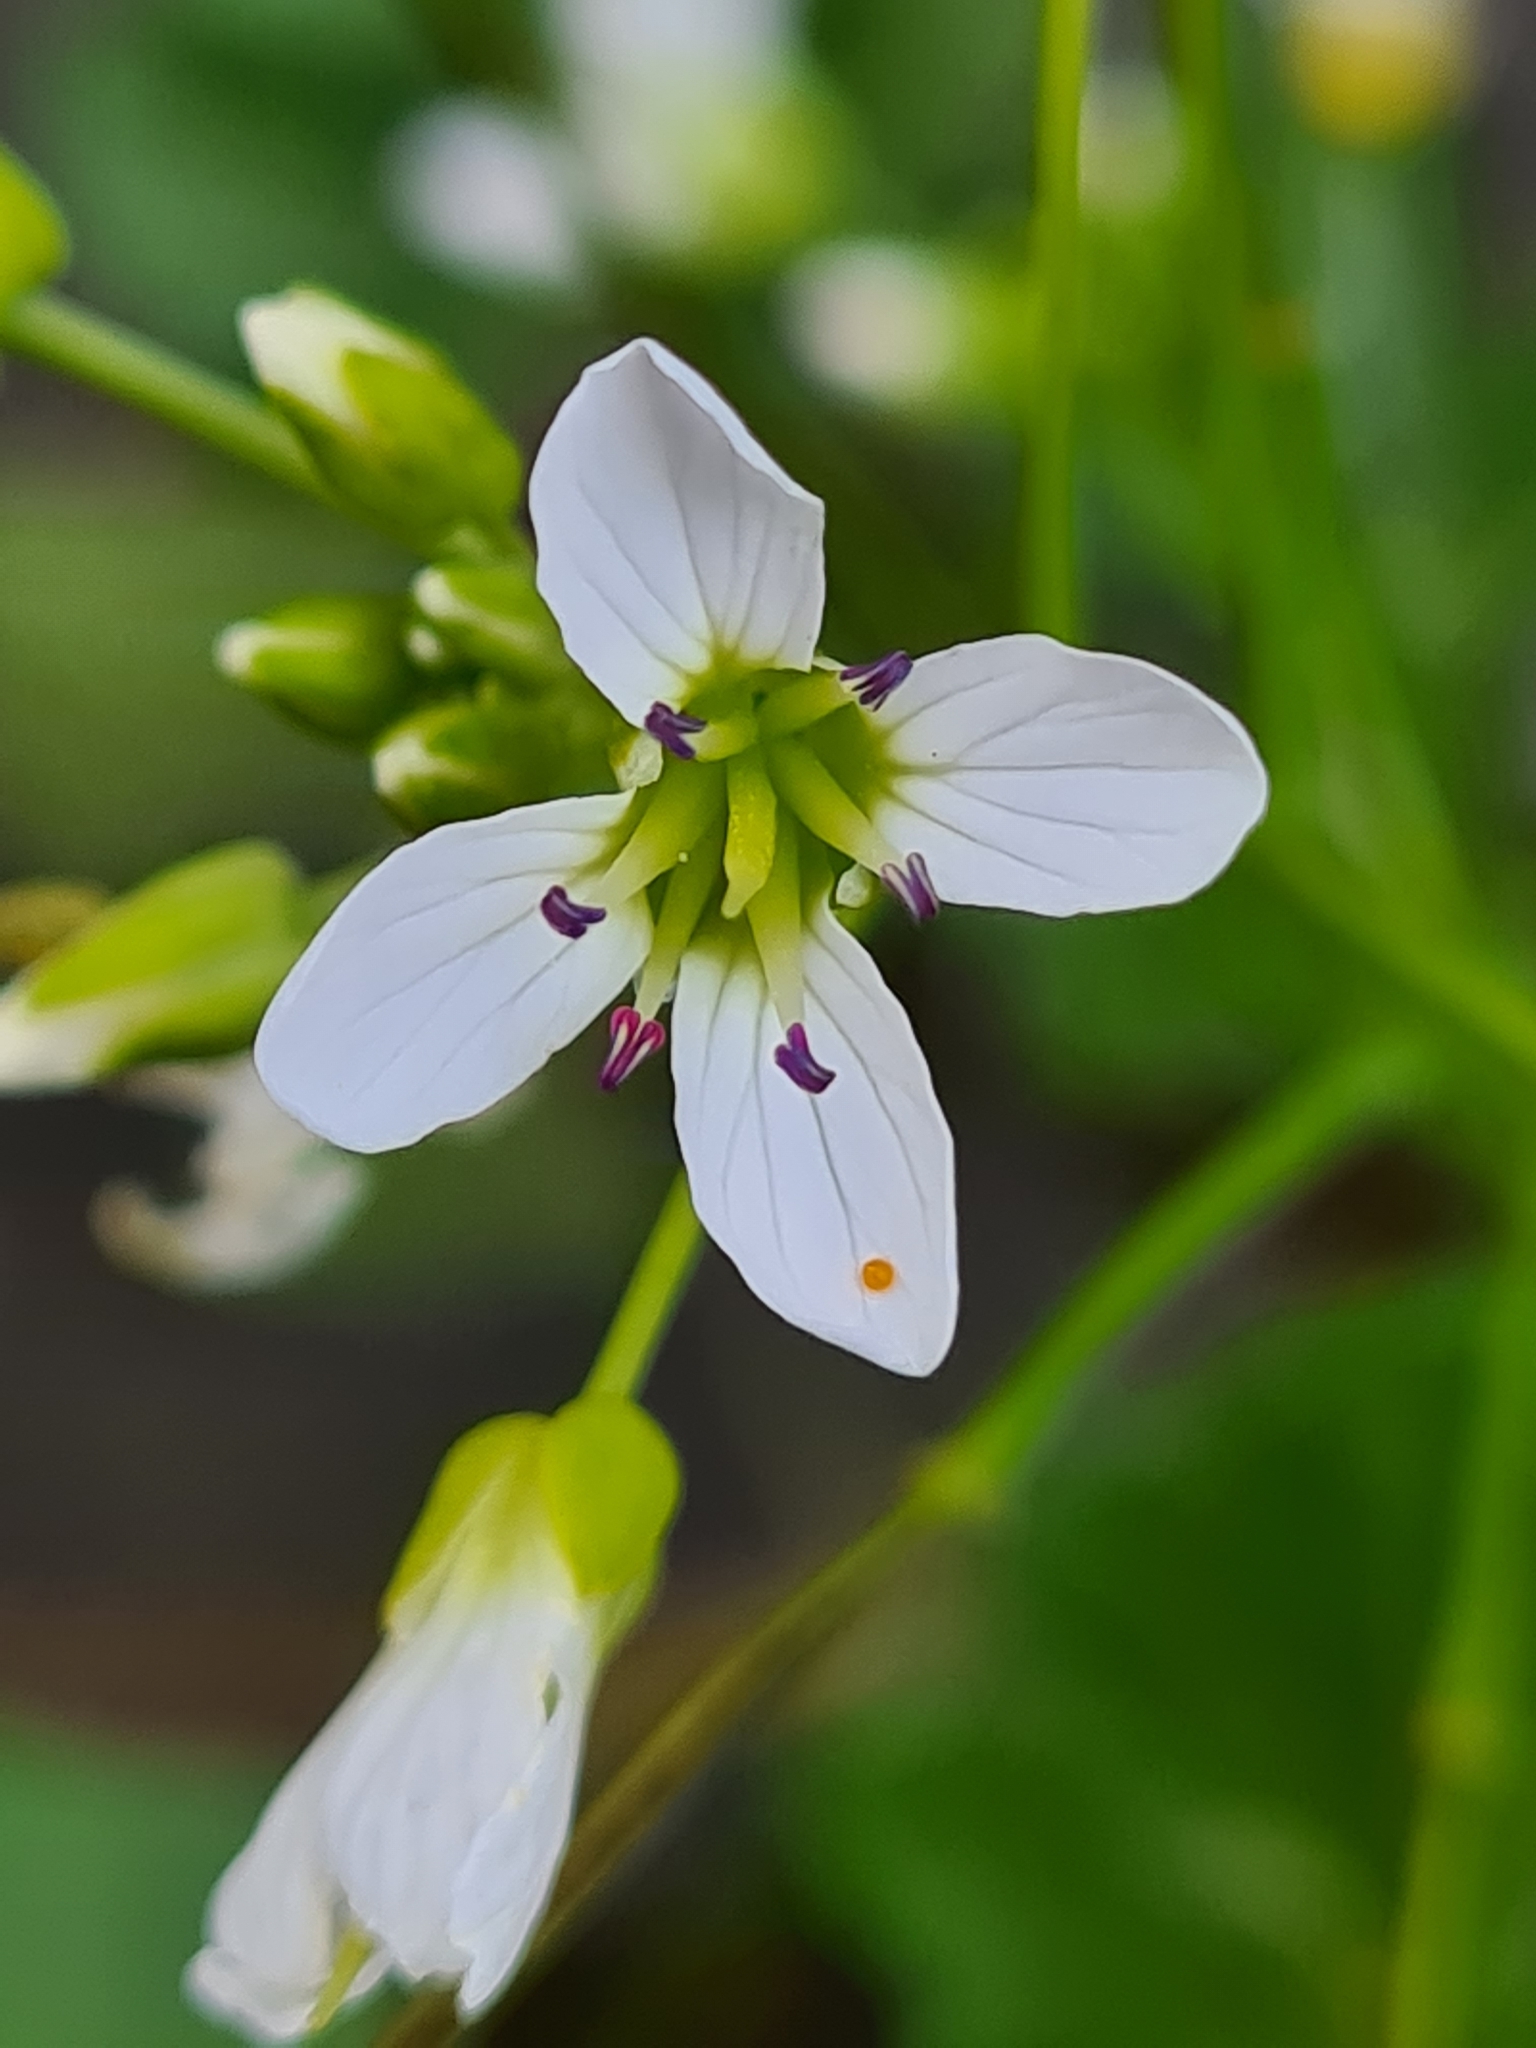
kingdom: Plantae
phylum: Tracheophyta
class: Magnoliopsida
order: Brassicales
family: Brassicaceae
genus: Cardamine
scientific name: Cardamine amara
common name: Large bitter-cress
